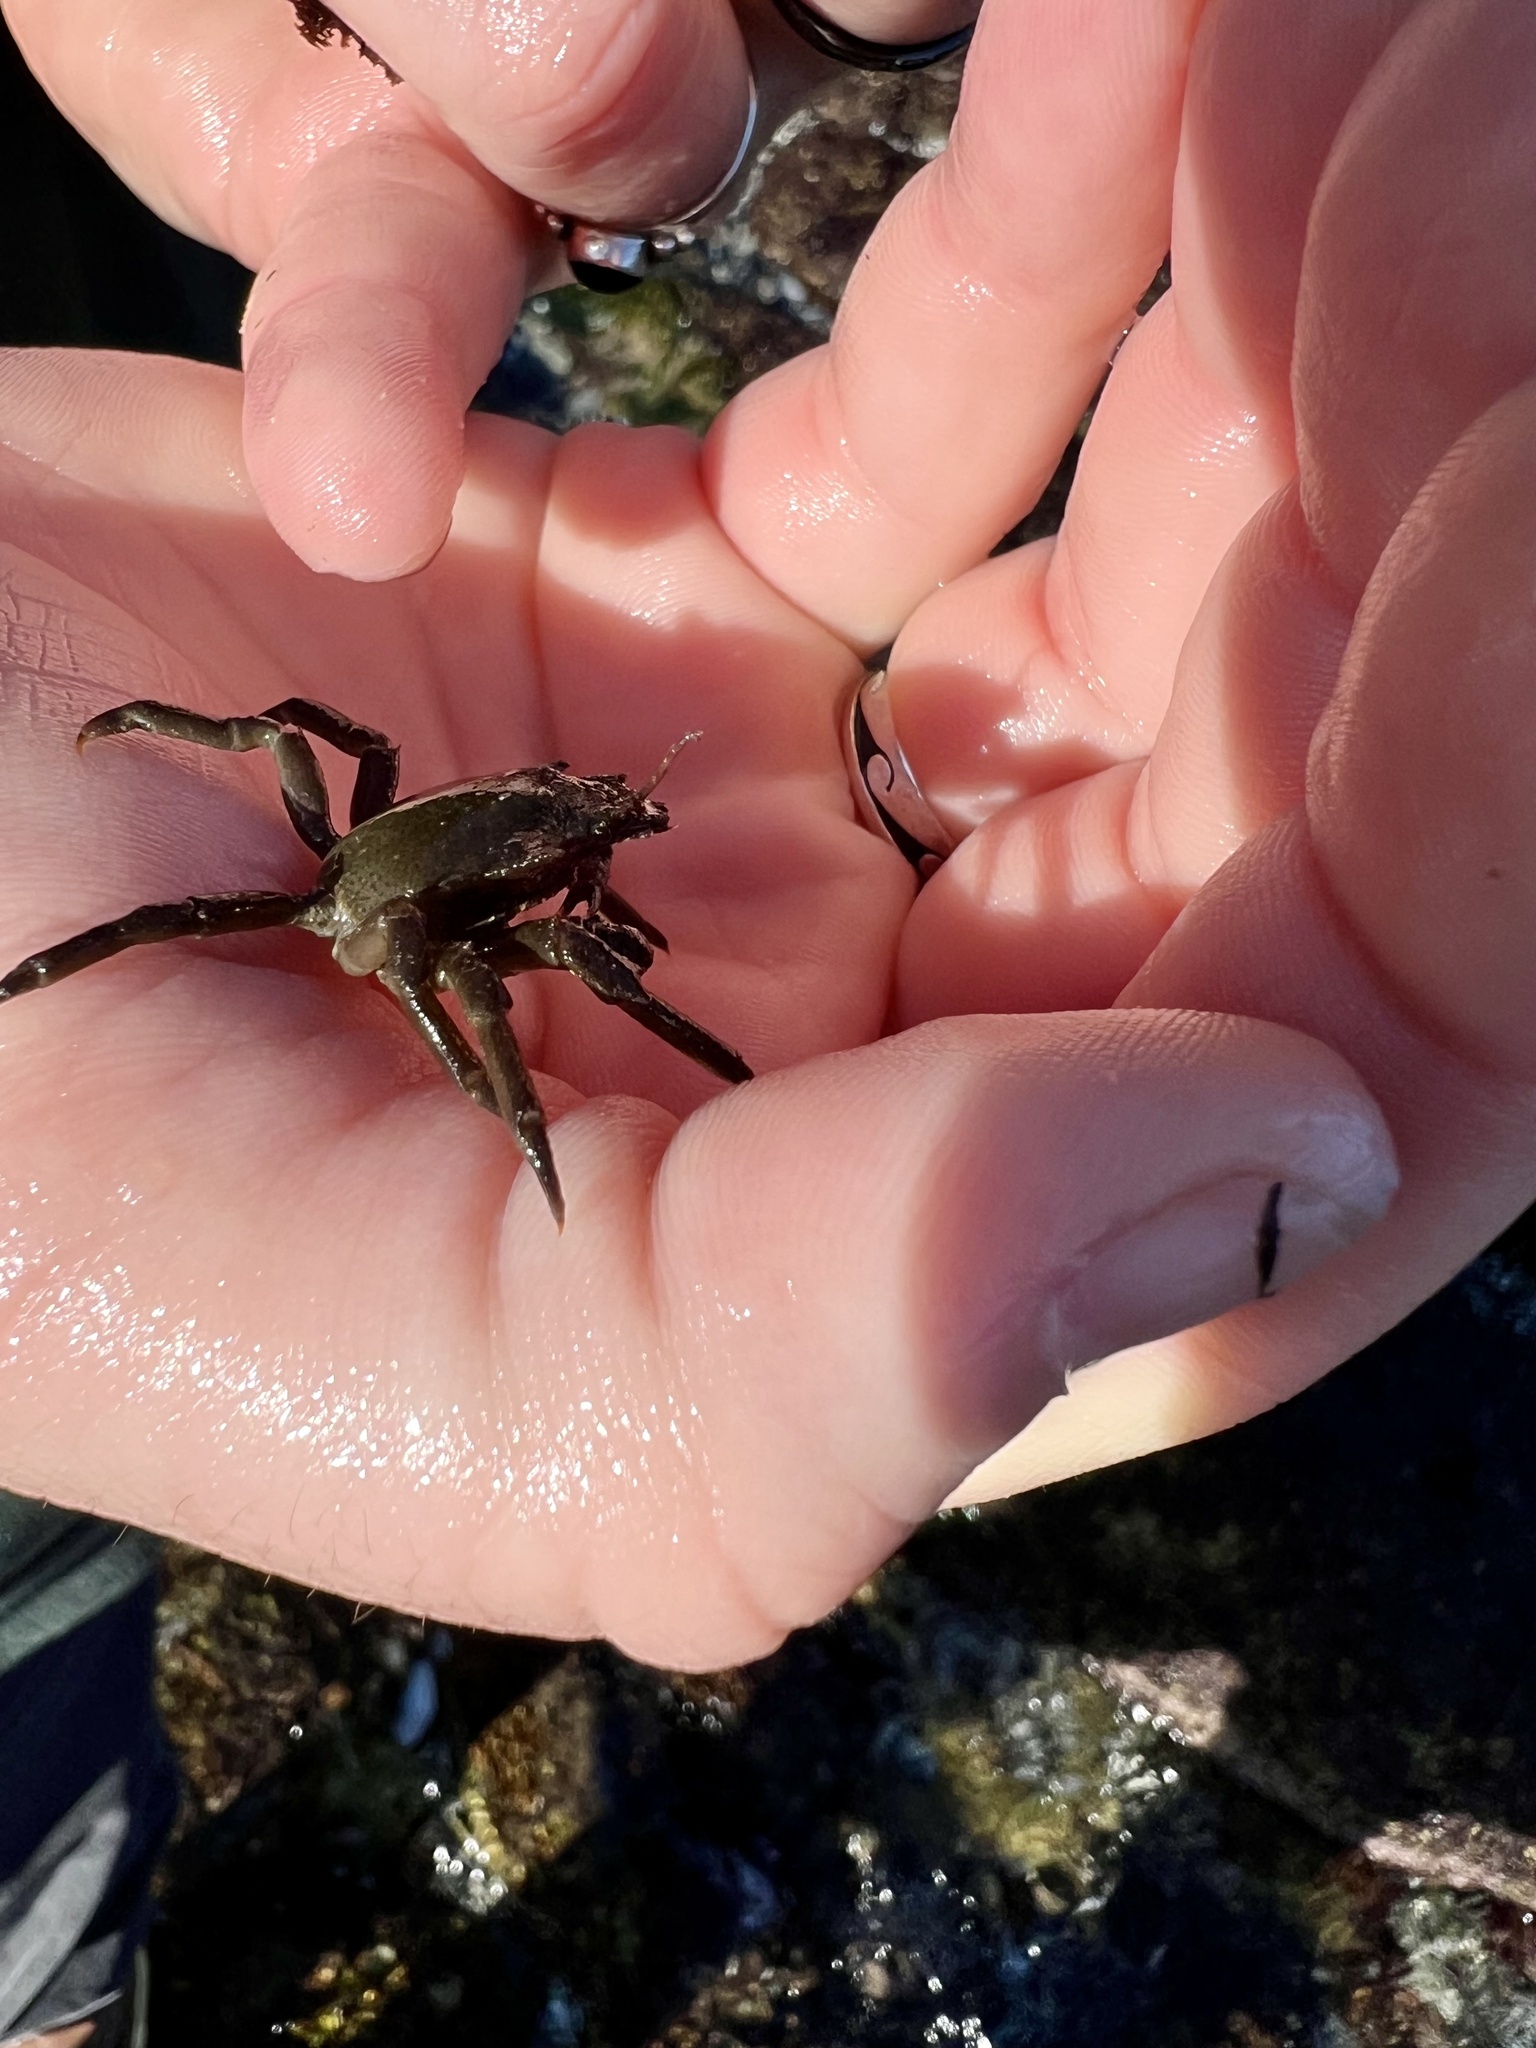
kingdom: Animalia
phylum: Arthropoda
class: Malacostraca
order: Decapoda
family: Epialtidae
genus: Pugettia
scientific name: Pugettia producta
